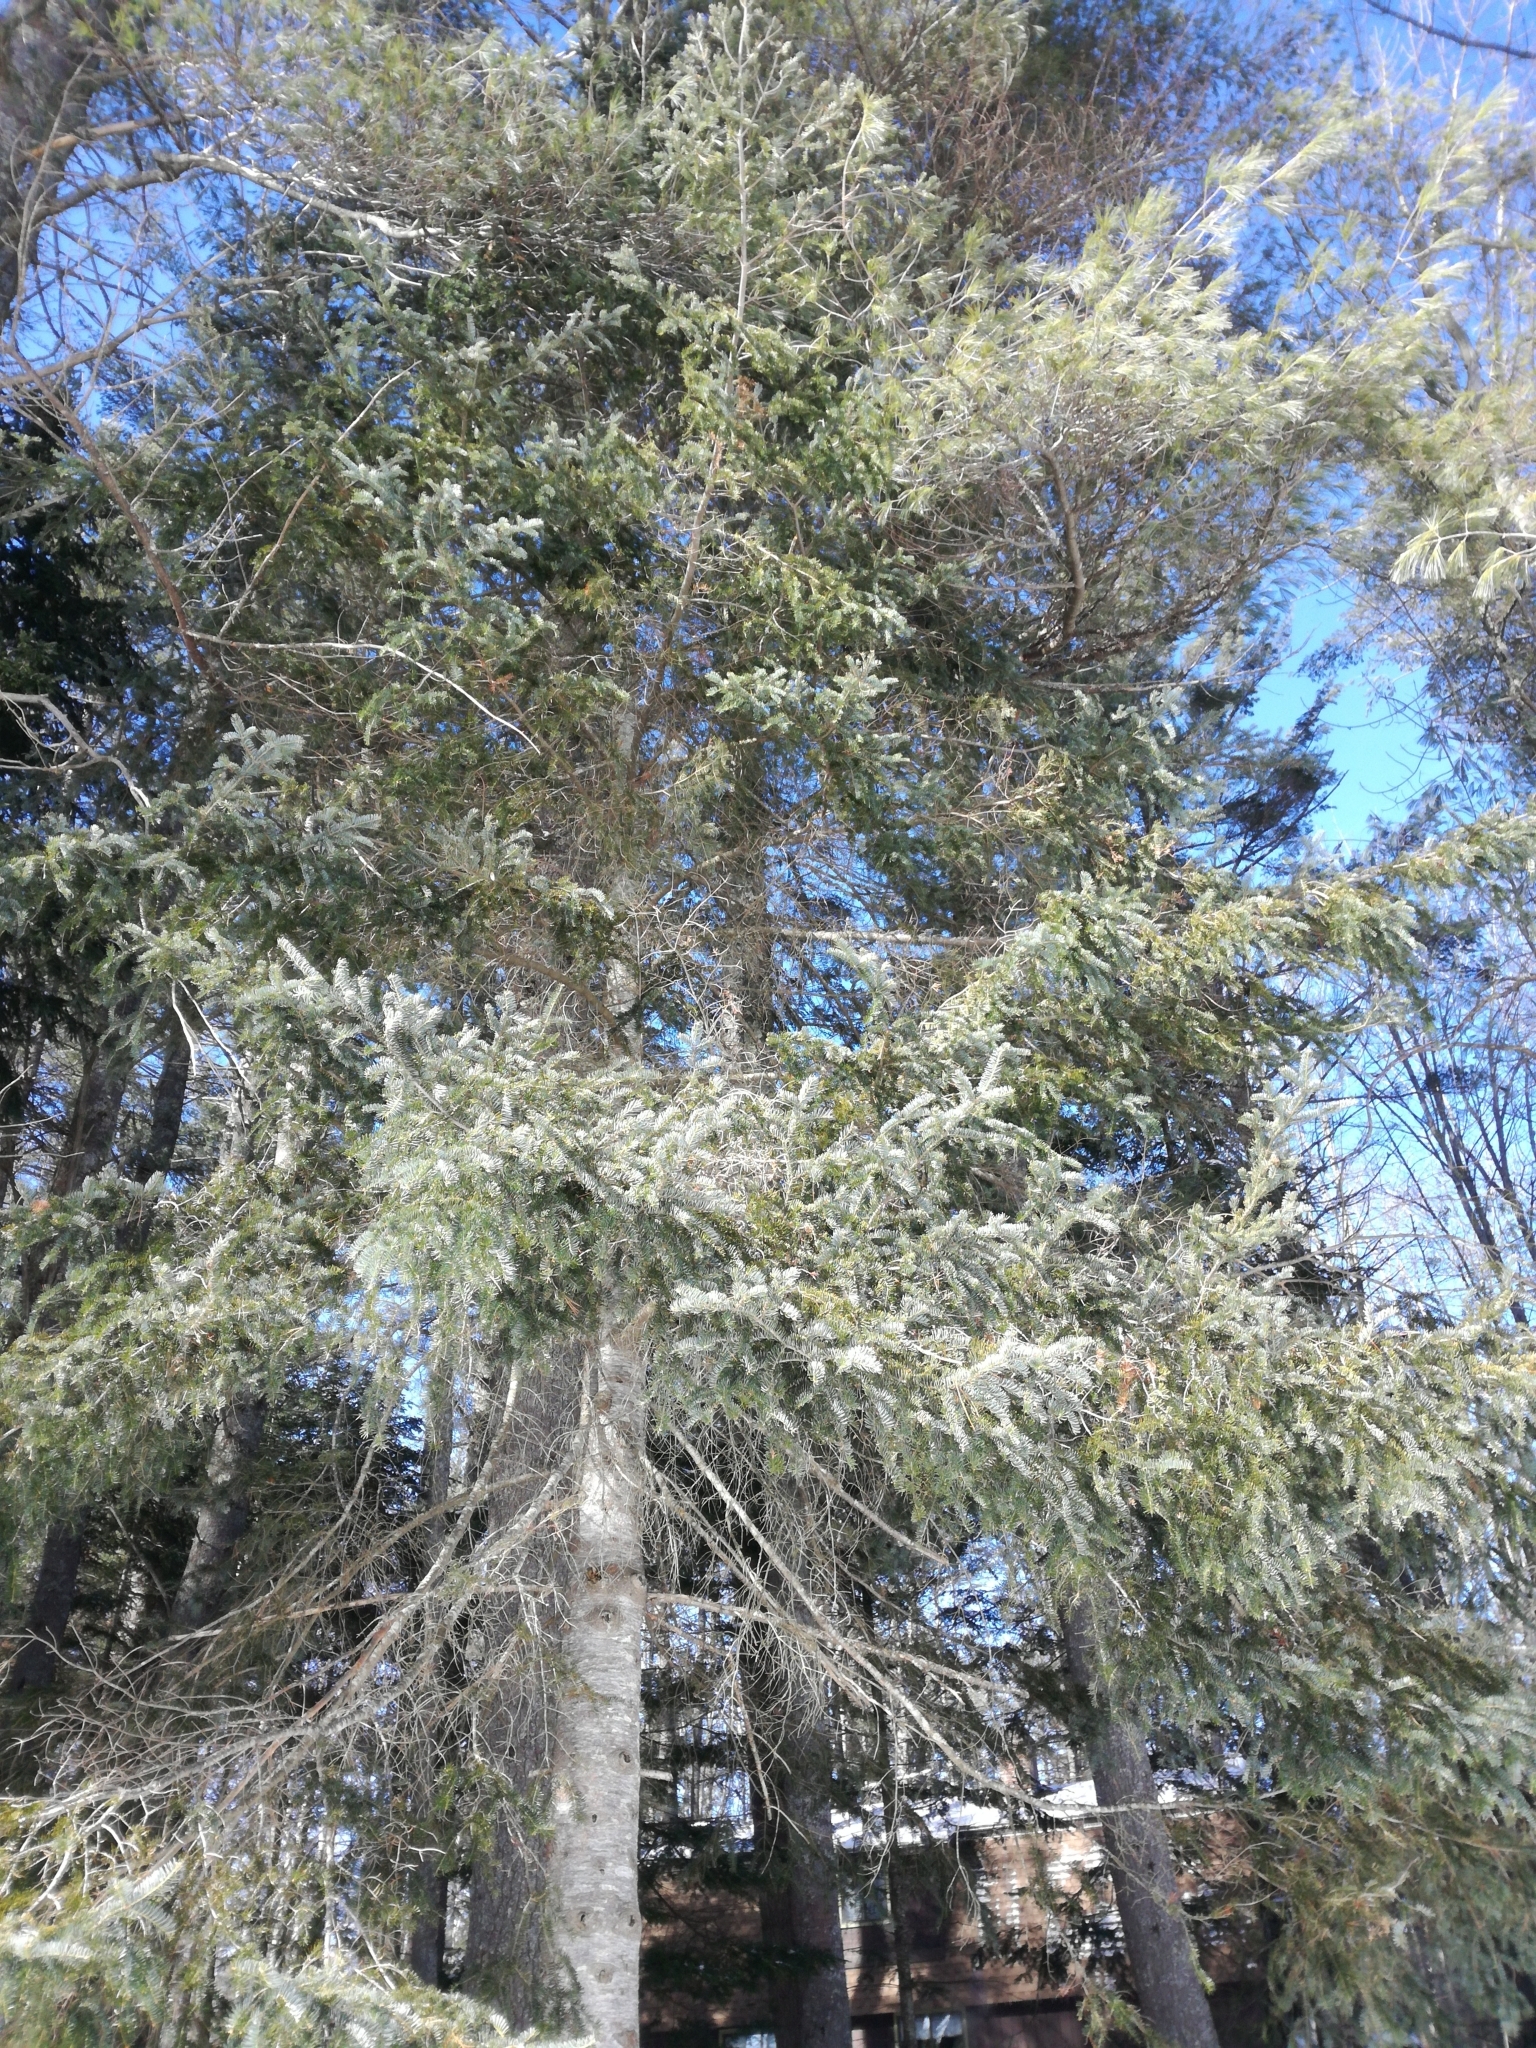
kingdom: Plantae
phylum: Tracheophyta
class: Pinopsida
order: Pinales
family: Pinaceae
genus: Abies
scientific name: Abies balsamea
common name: Balsam fir
